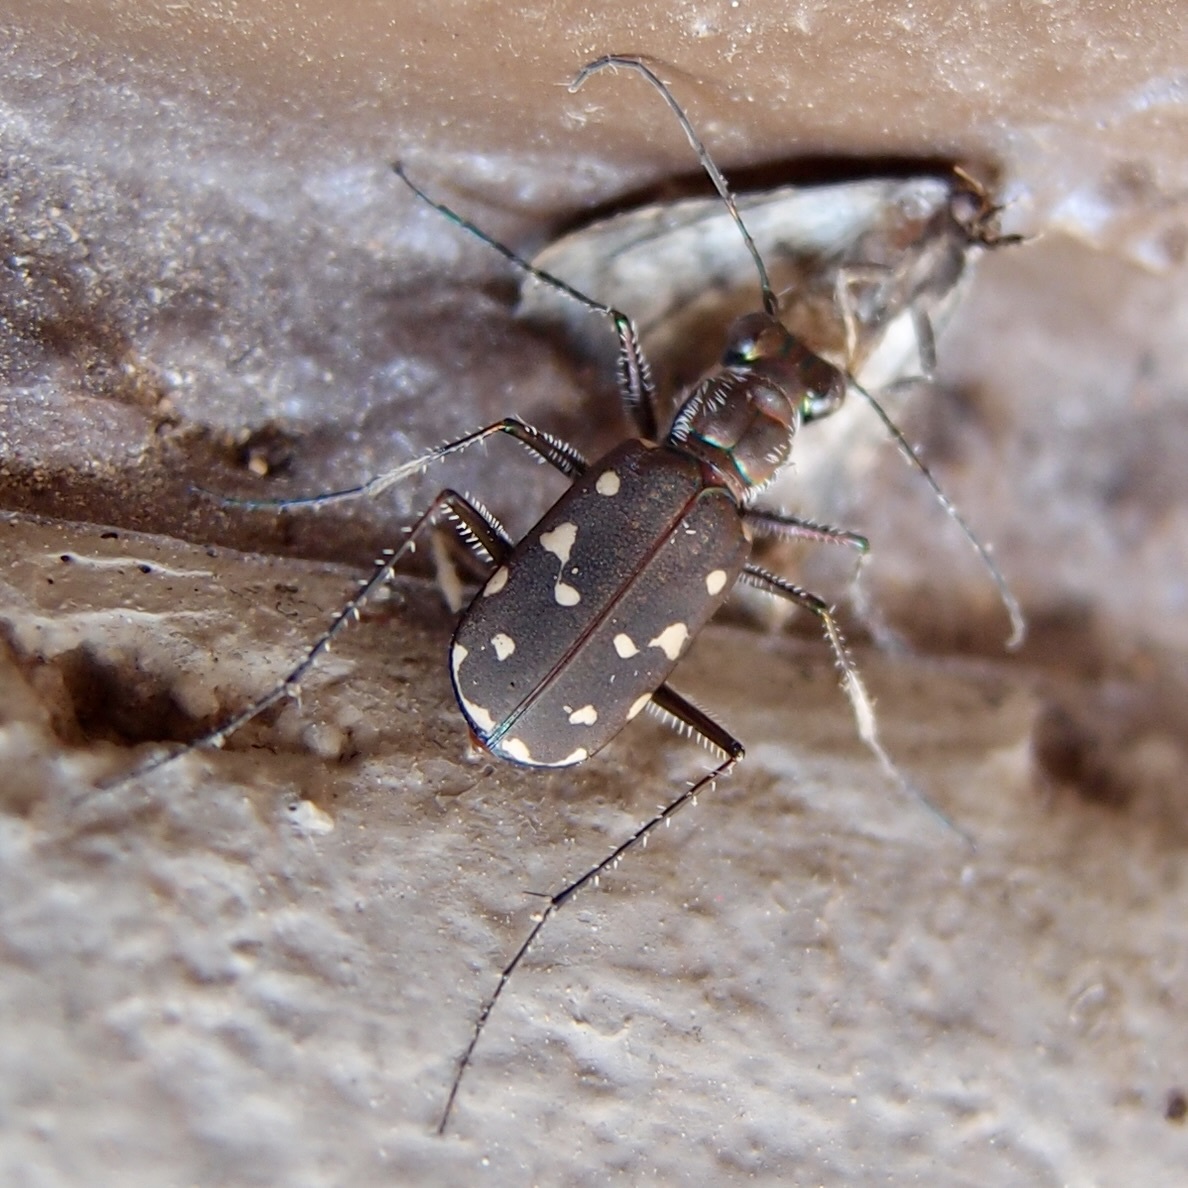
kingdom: Animalia
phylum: Arthropoda
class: Insecta
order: Coleoptera
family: Carabidae
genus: Cicindela
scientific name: Cicindela sedecimpunctata
